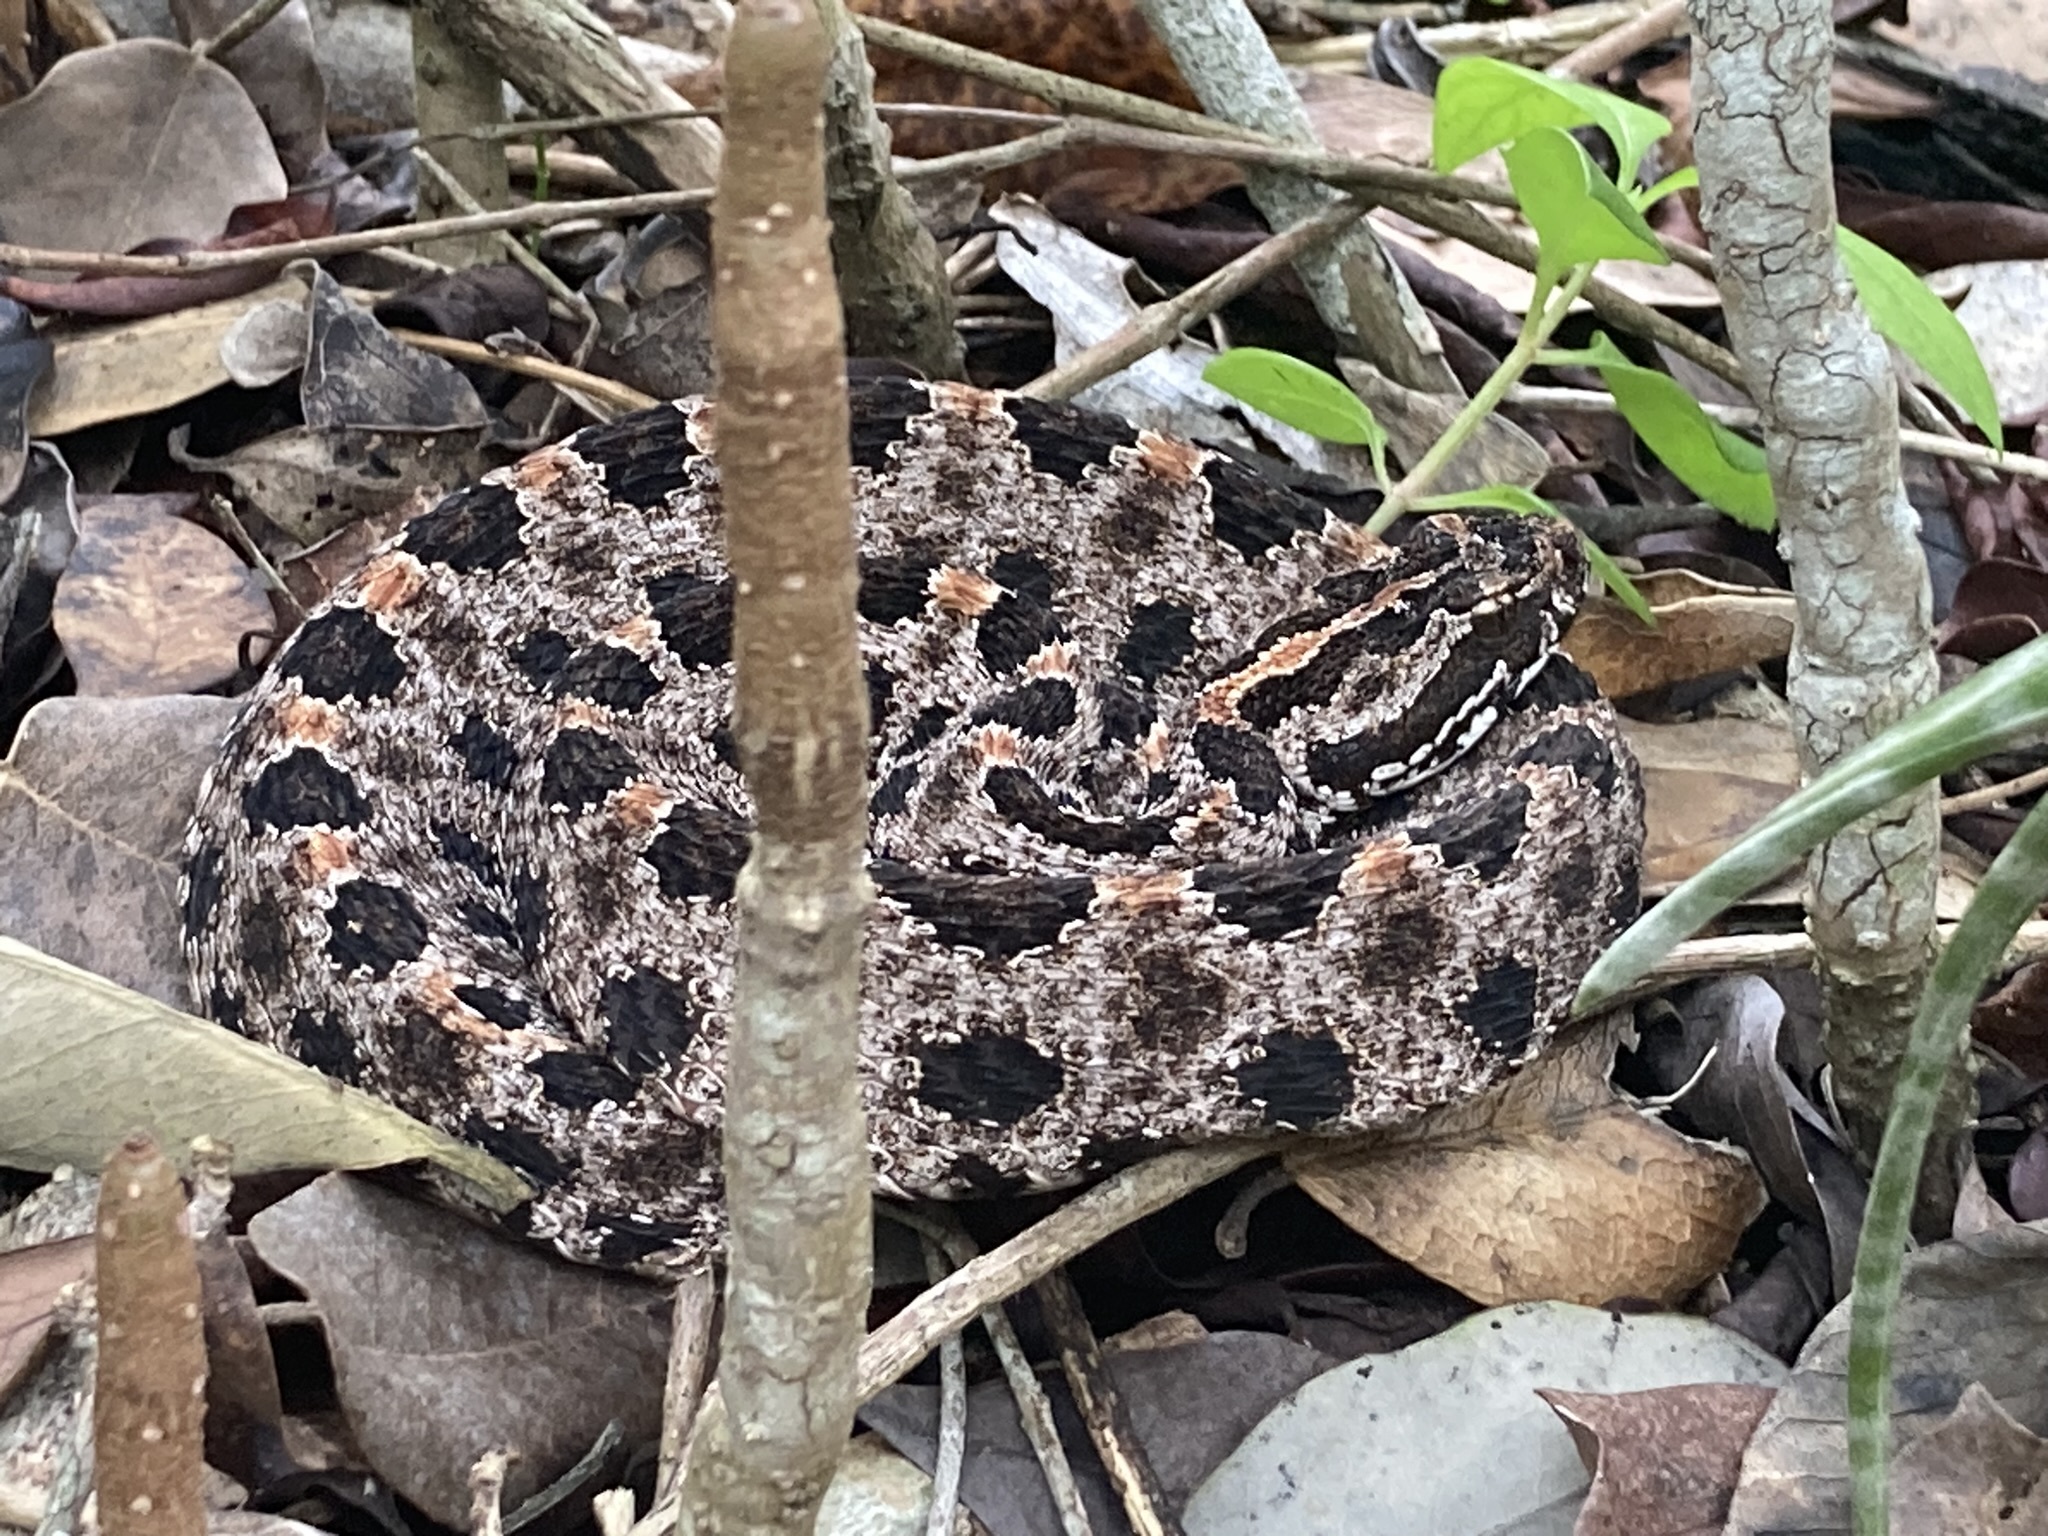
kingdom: Animalia
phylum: Chordata
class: Squamata
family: Viperidae
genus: Sistrurus
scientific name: Sistrurus miliarius
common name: Pygmy rattlesnake
